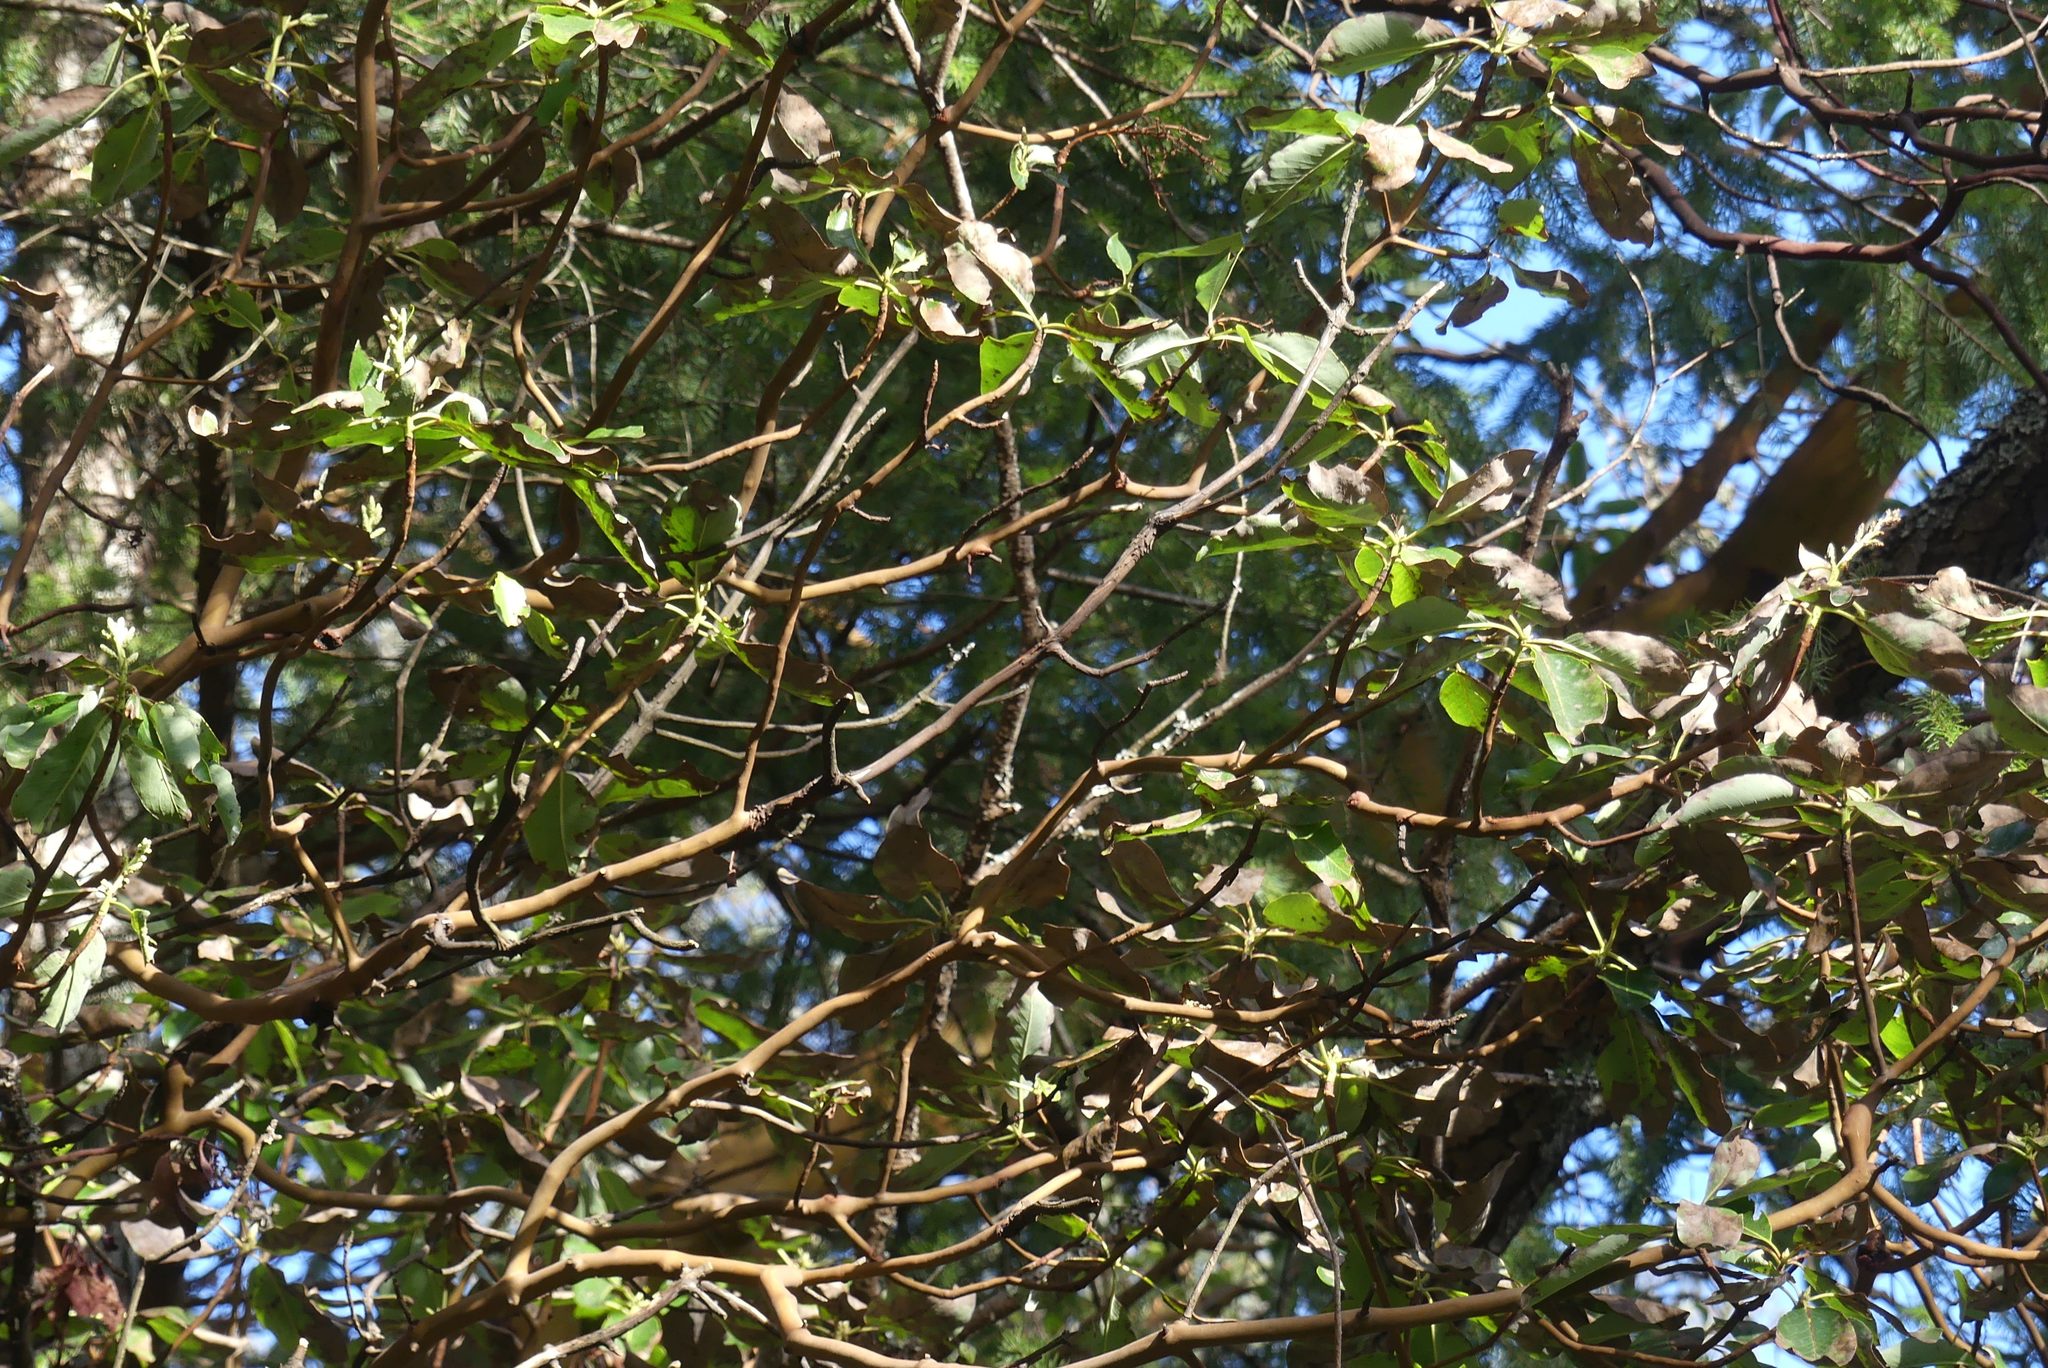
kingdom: Plantae
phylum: Tracheophyta
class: Magnoliopsida
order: Ericales
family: Ericaceae
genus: Arbutus
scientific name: Arbutus menziesii
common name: Pacific madrone
